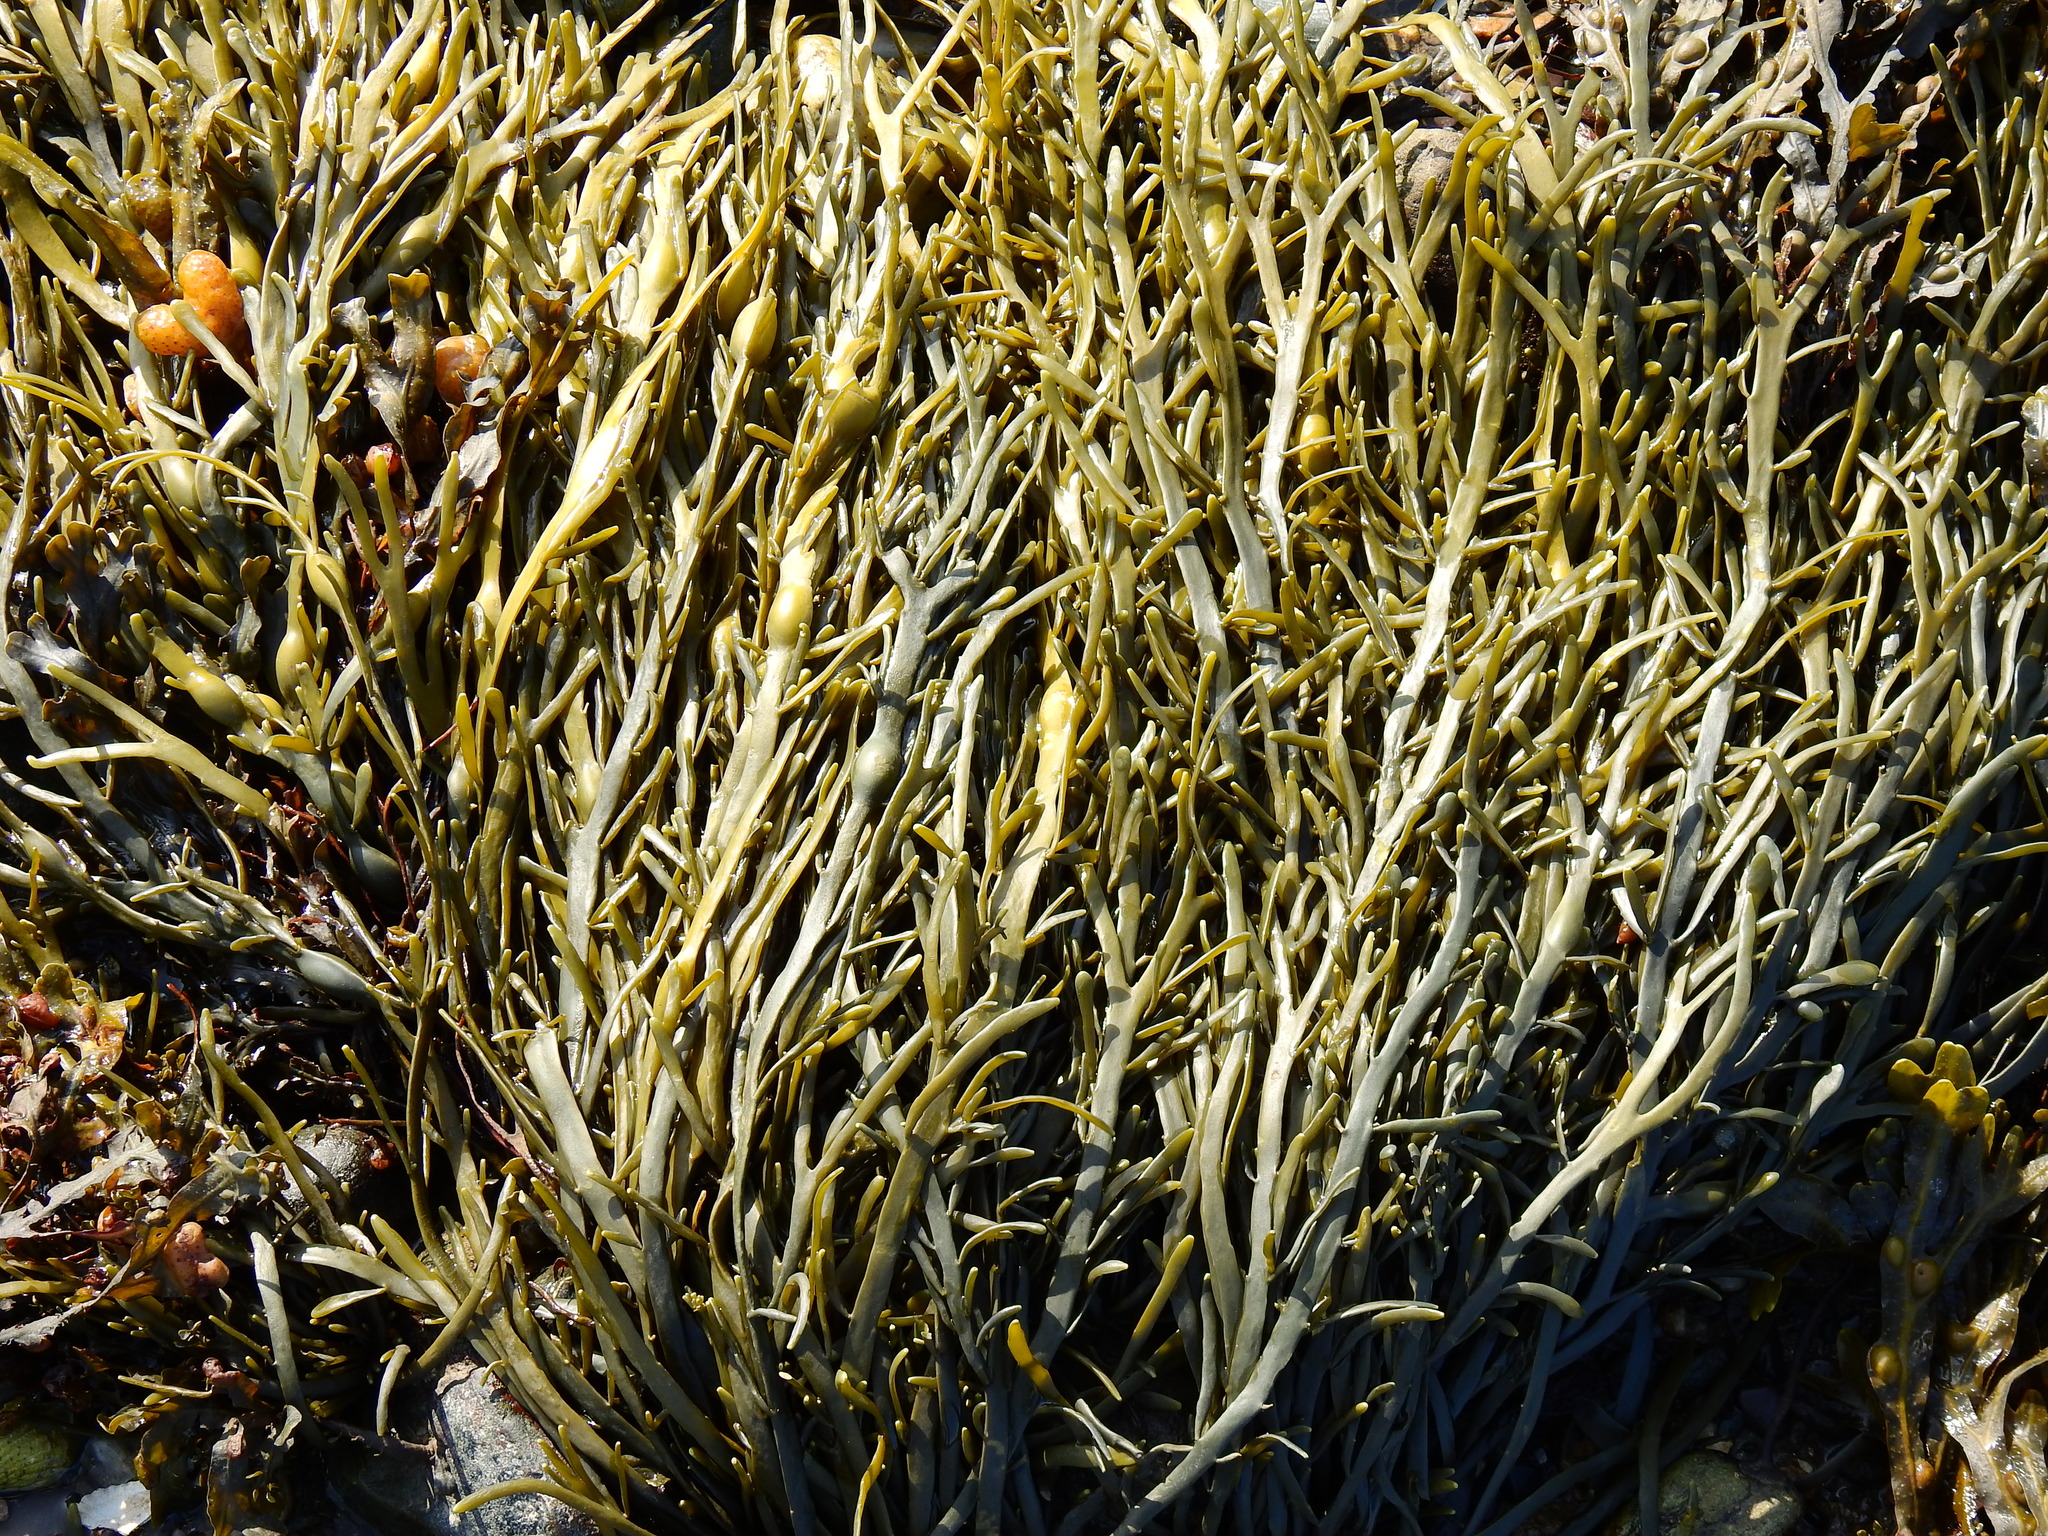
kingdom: Chromista
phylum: Ochrophyta
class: Phaeophyceae
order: Fucales
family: Fucaceae
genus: Ascophyllum
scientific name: Ascophyllum nodosum
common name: Knotted wrack
